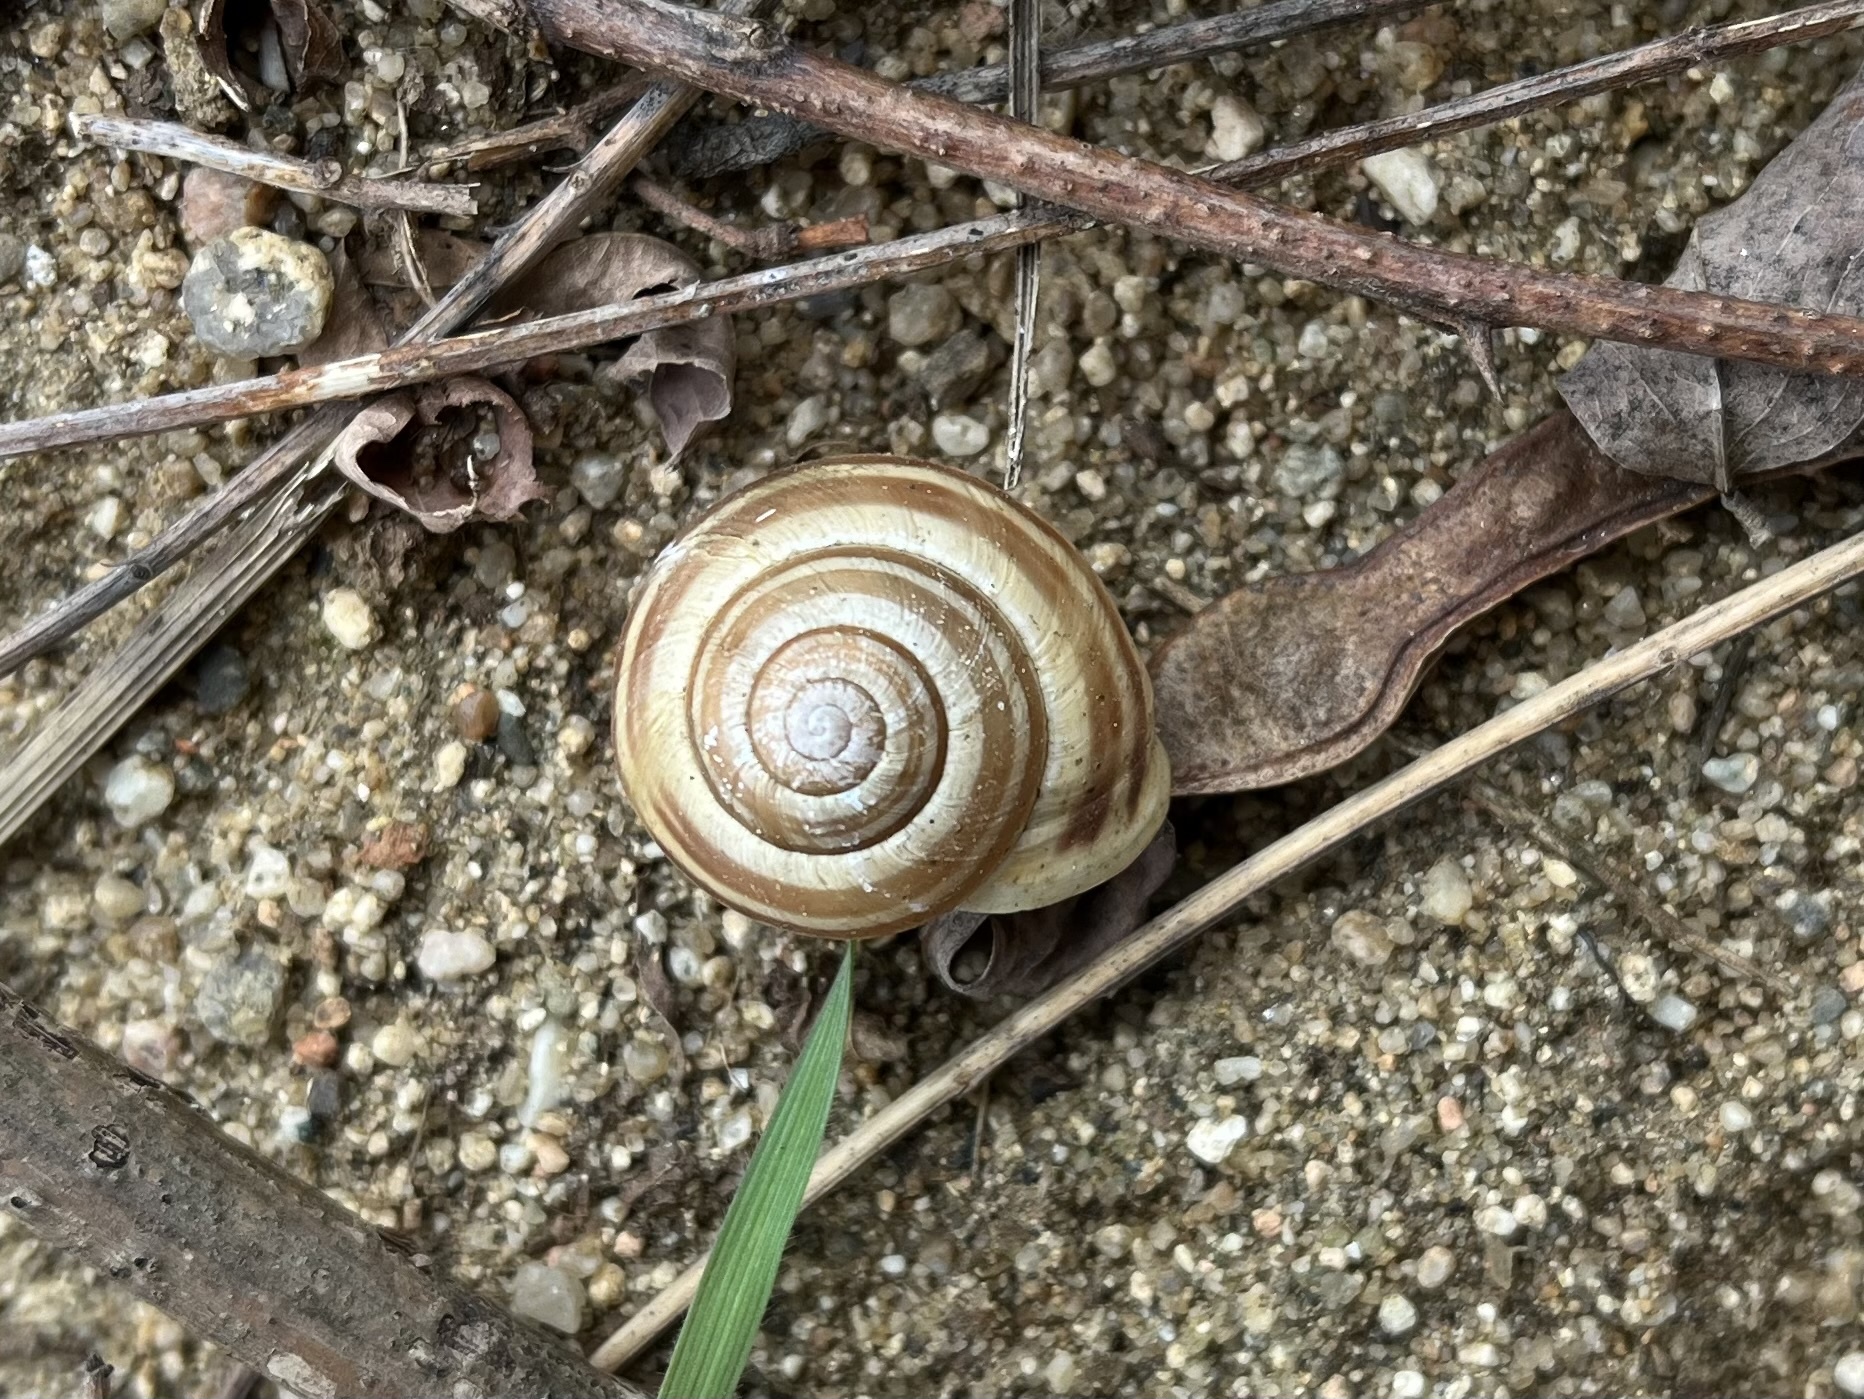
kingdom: Animalia
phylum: Mollusca
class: Gastropoda
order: Stylommatophora
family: Helicidae
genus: Cepaea
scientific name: Cepaea hortensis
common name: White-lip gardensnail
